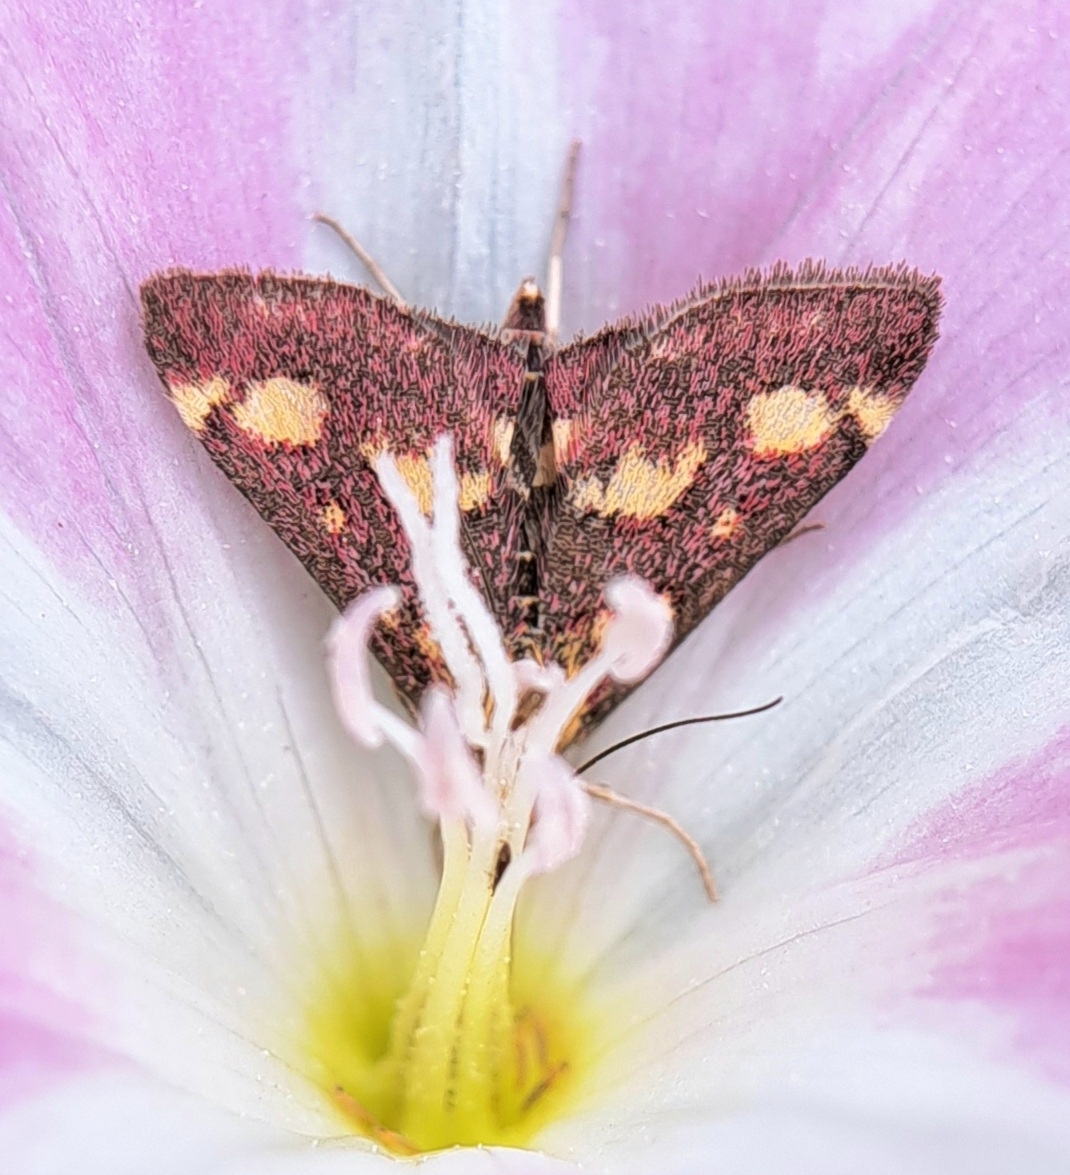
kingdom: Animalia
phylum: Arthropoda
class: Insecta
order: Lepidoptera
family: Crambidae
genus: Pyrausta
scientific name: Pyrausta purpuralis
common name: Common purple & gold
